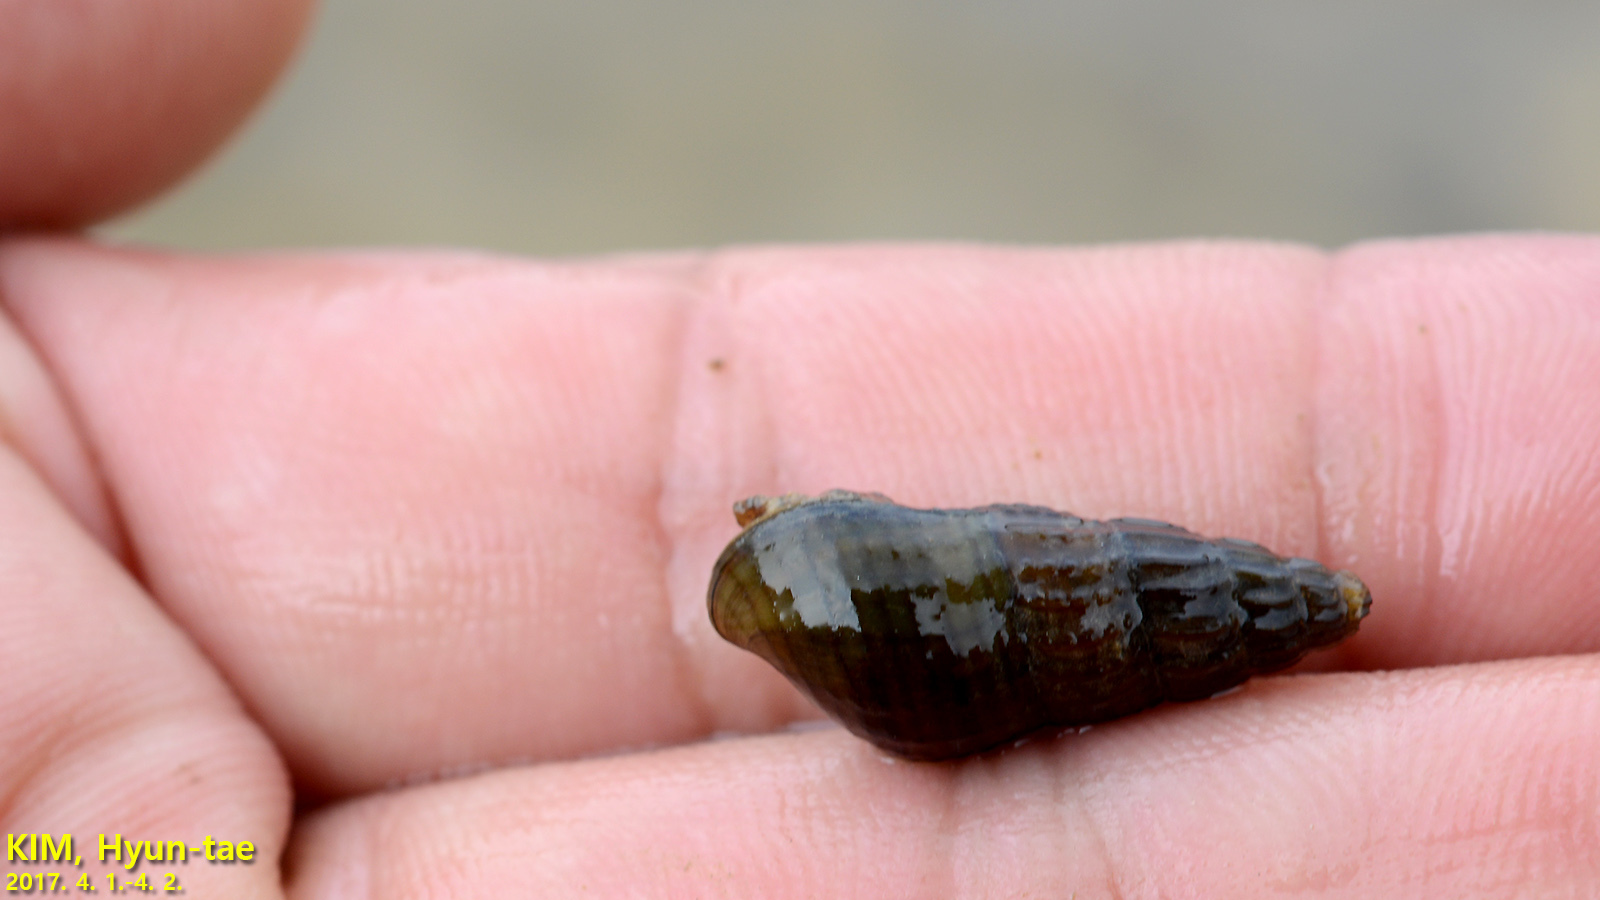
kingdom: Animalia
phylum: Mollusca
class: Gastropoda
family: Semisulcospiridae
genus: Semisulcospira
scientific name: Semisulcospira coreana
